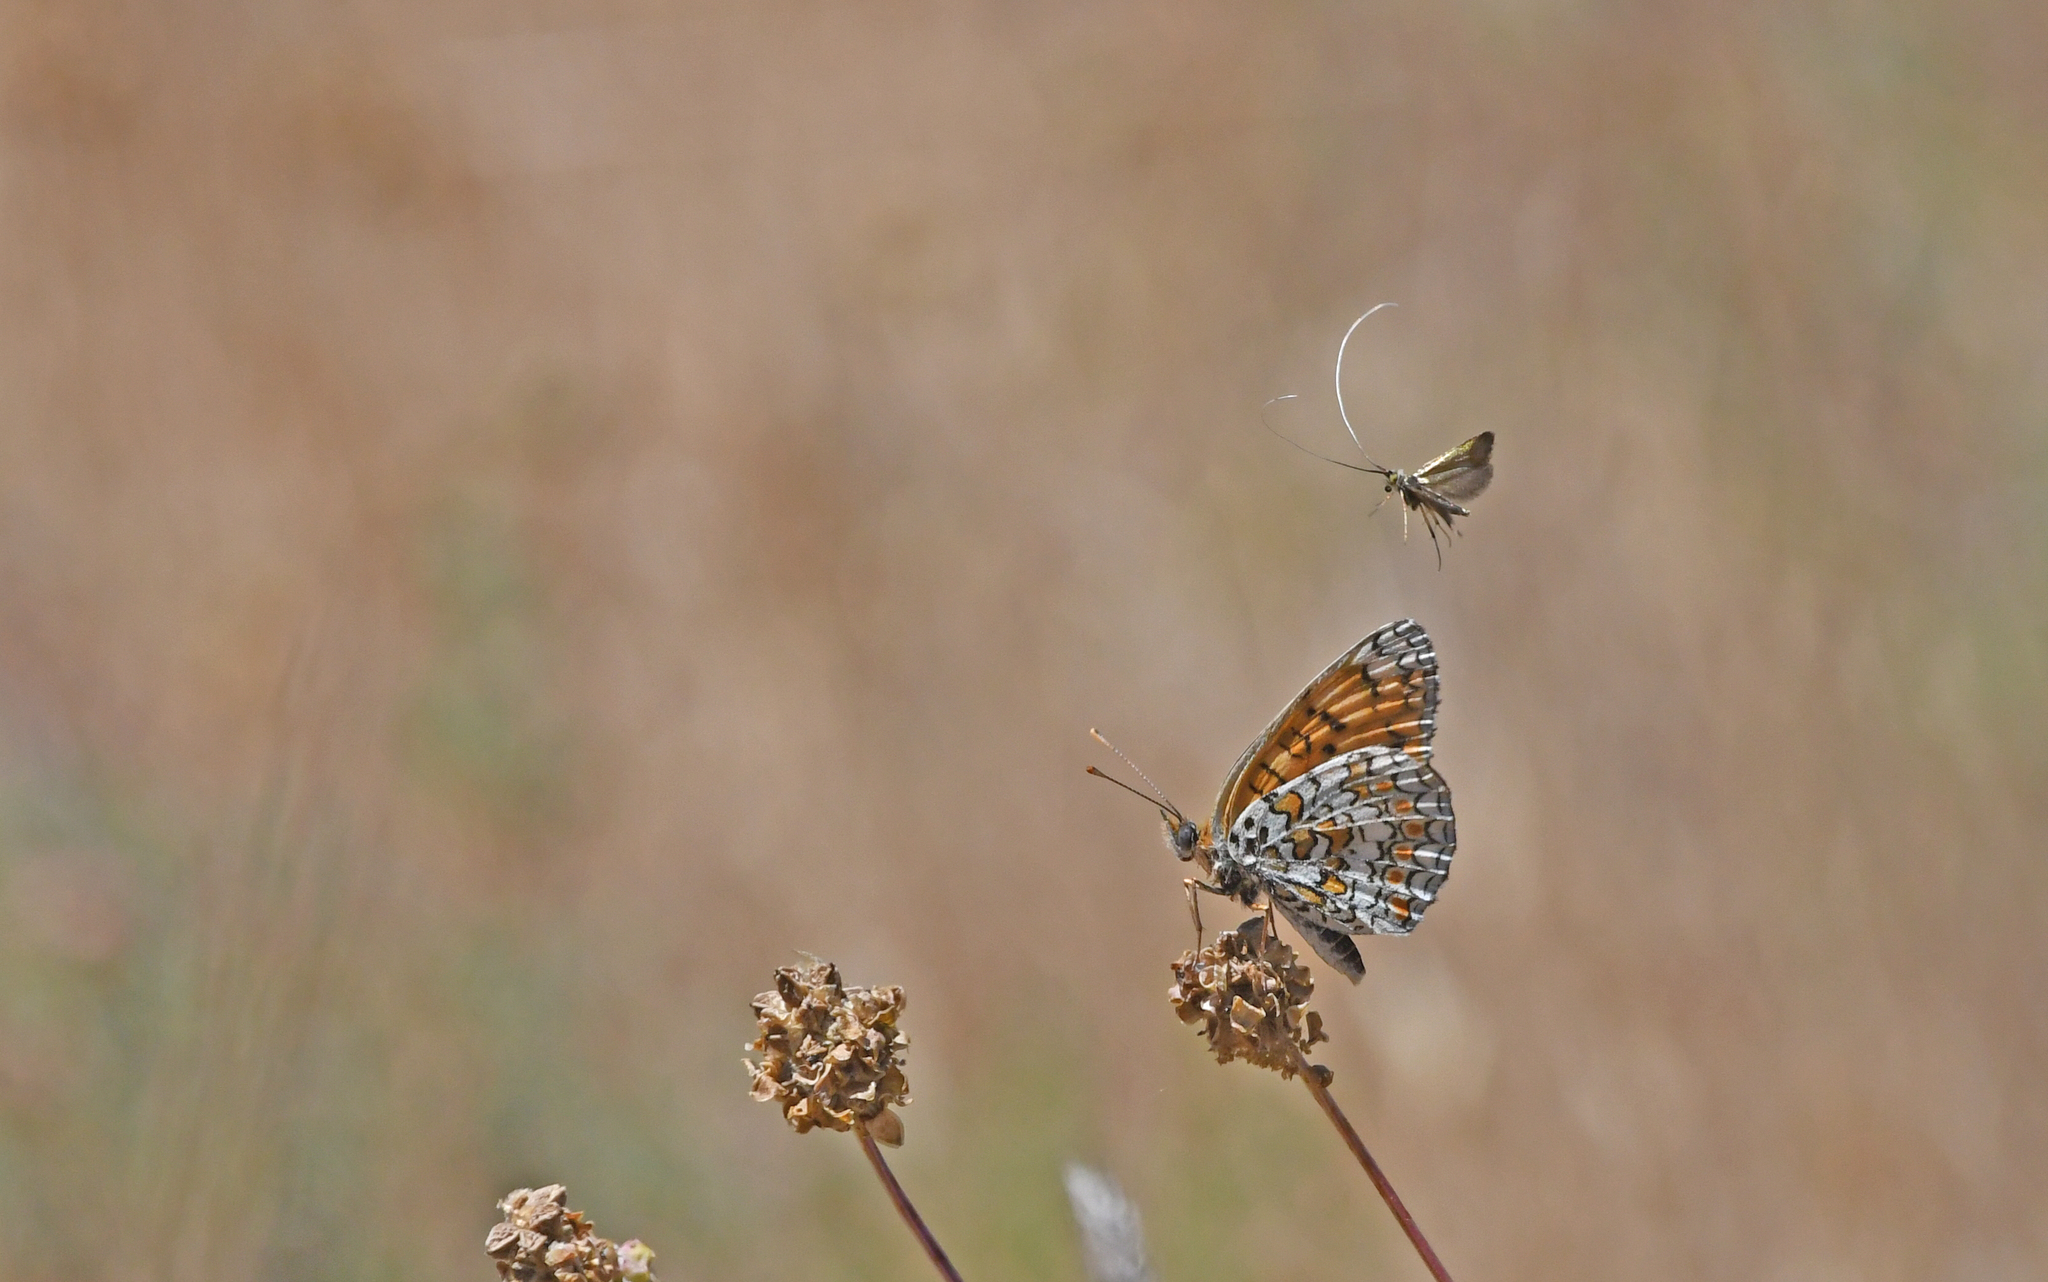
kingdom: Animalia
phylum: Arthropoda
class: Insecta
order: Lepidoptera
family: Nymphalidae
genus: Melitaea
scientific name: Melitaea phoebe
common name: Knapweed fritillary
